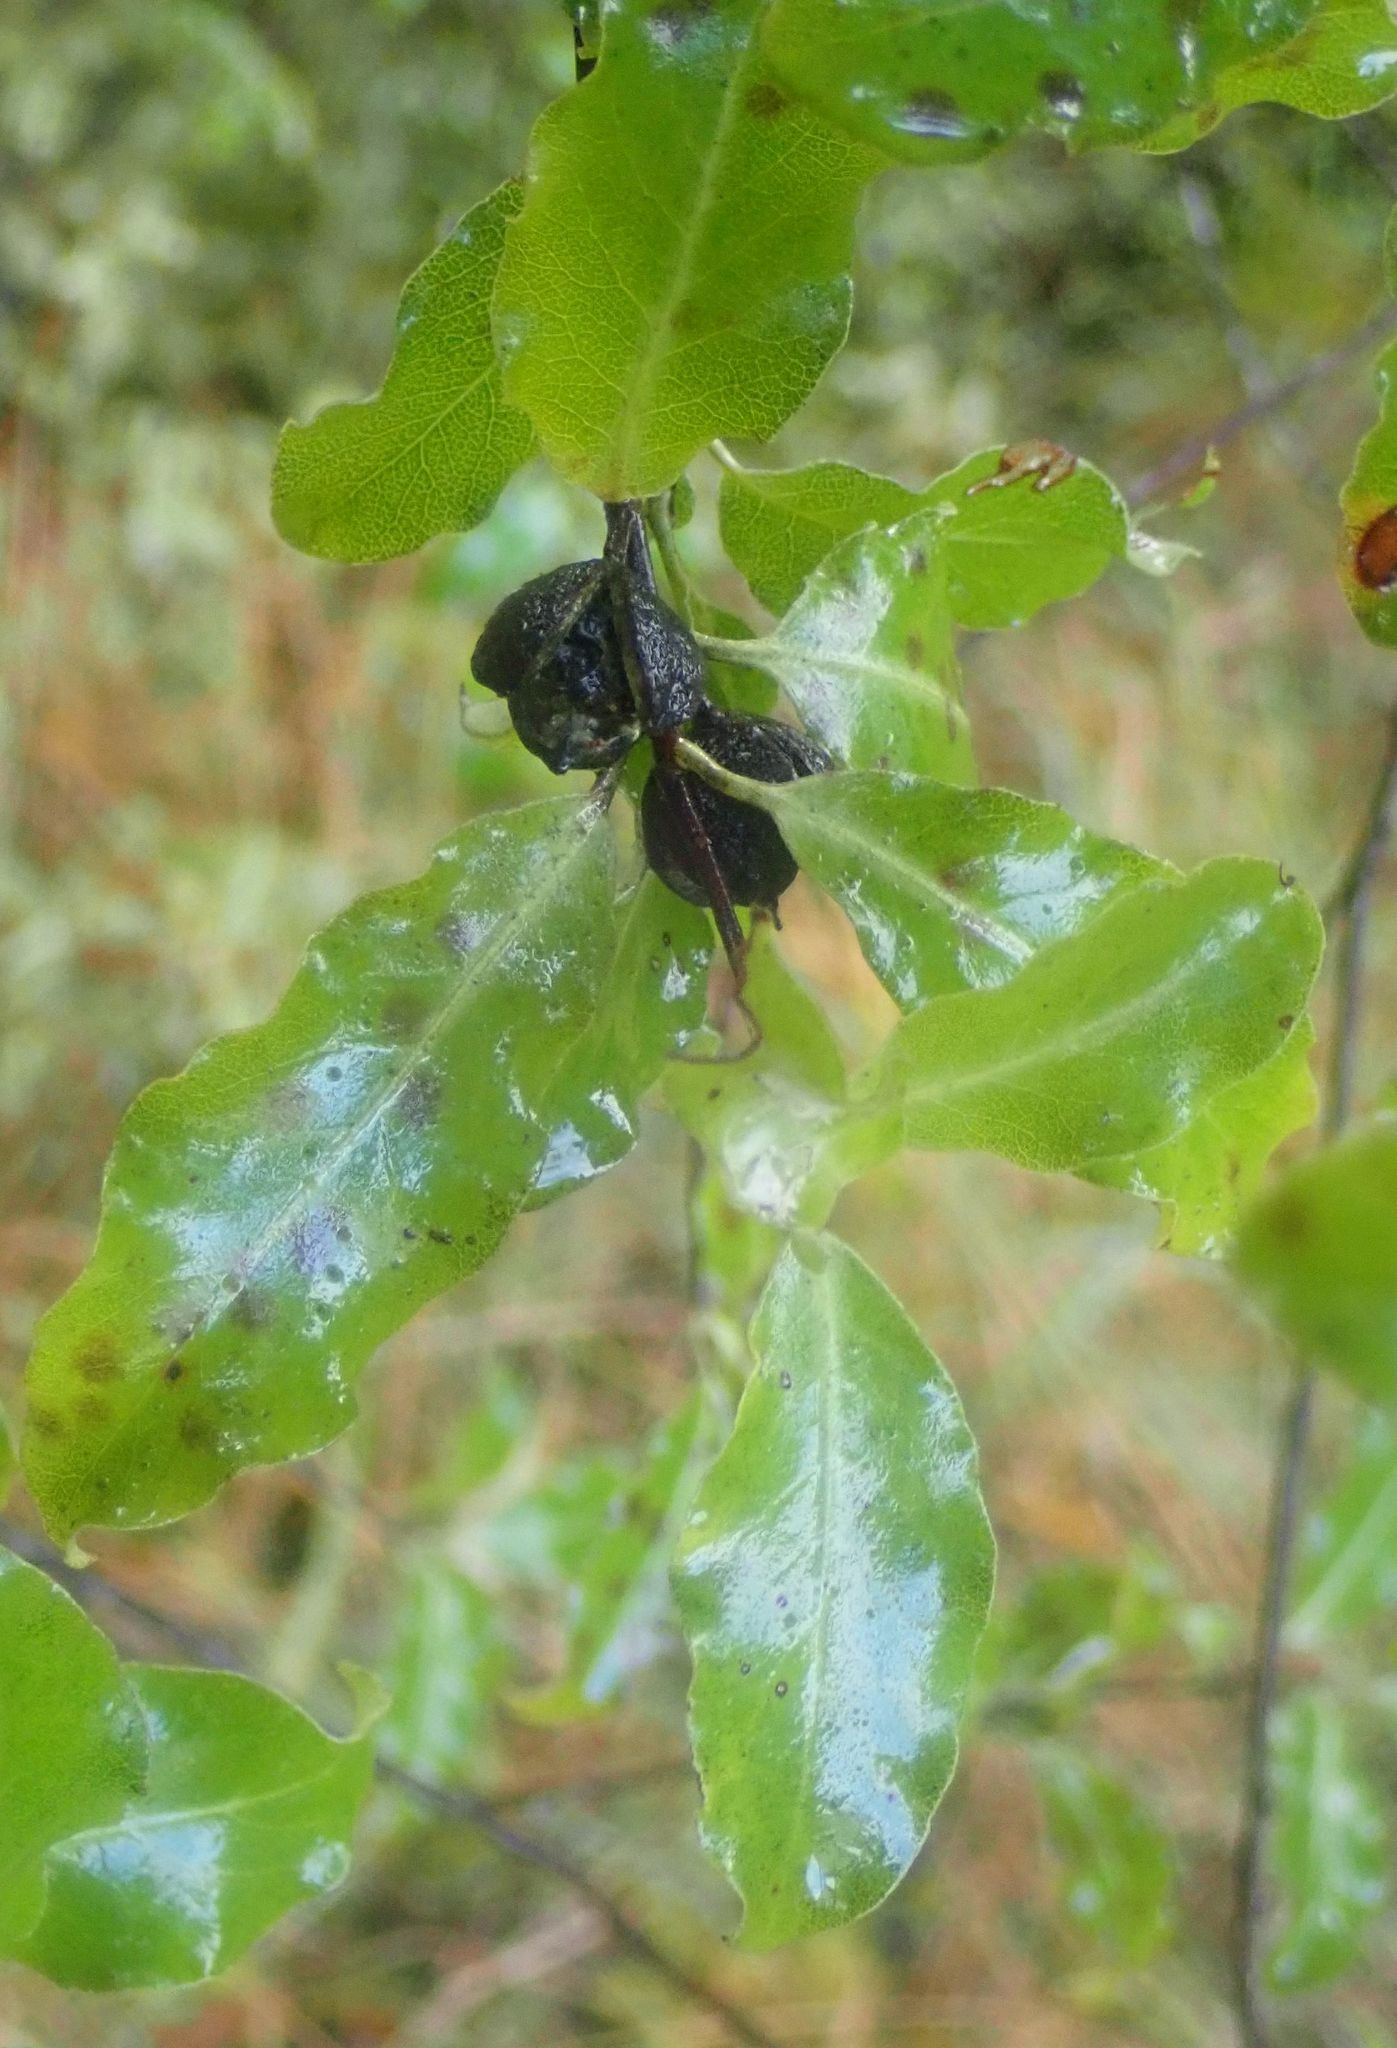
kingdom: Plantae
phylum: Tracheophyta
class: Magnoliopsida
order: Apiales
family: Pittosporaceae
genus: Pittosporum
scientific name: Pittosporum tenuifolium
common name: Kohuhu
